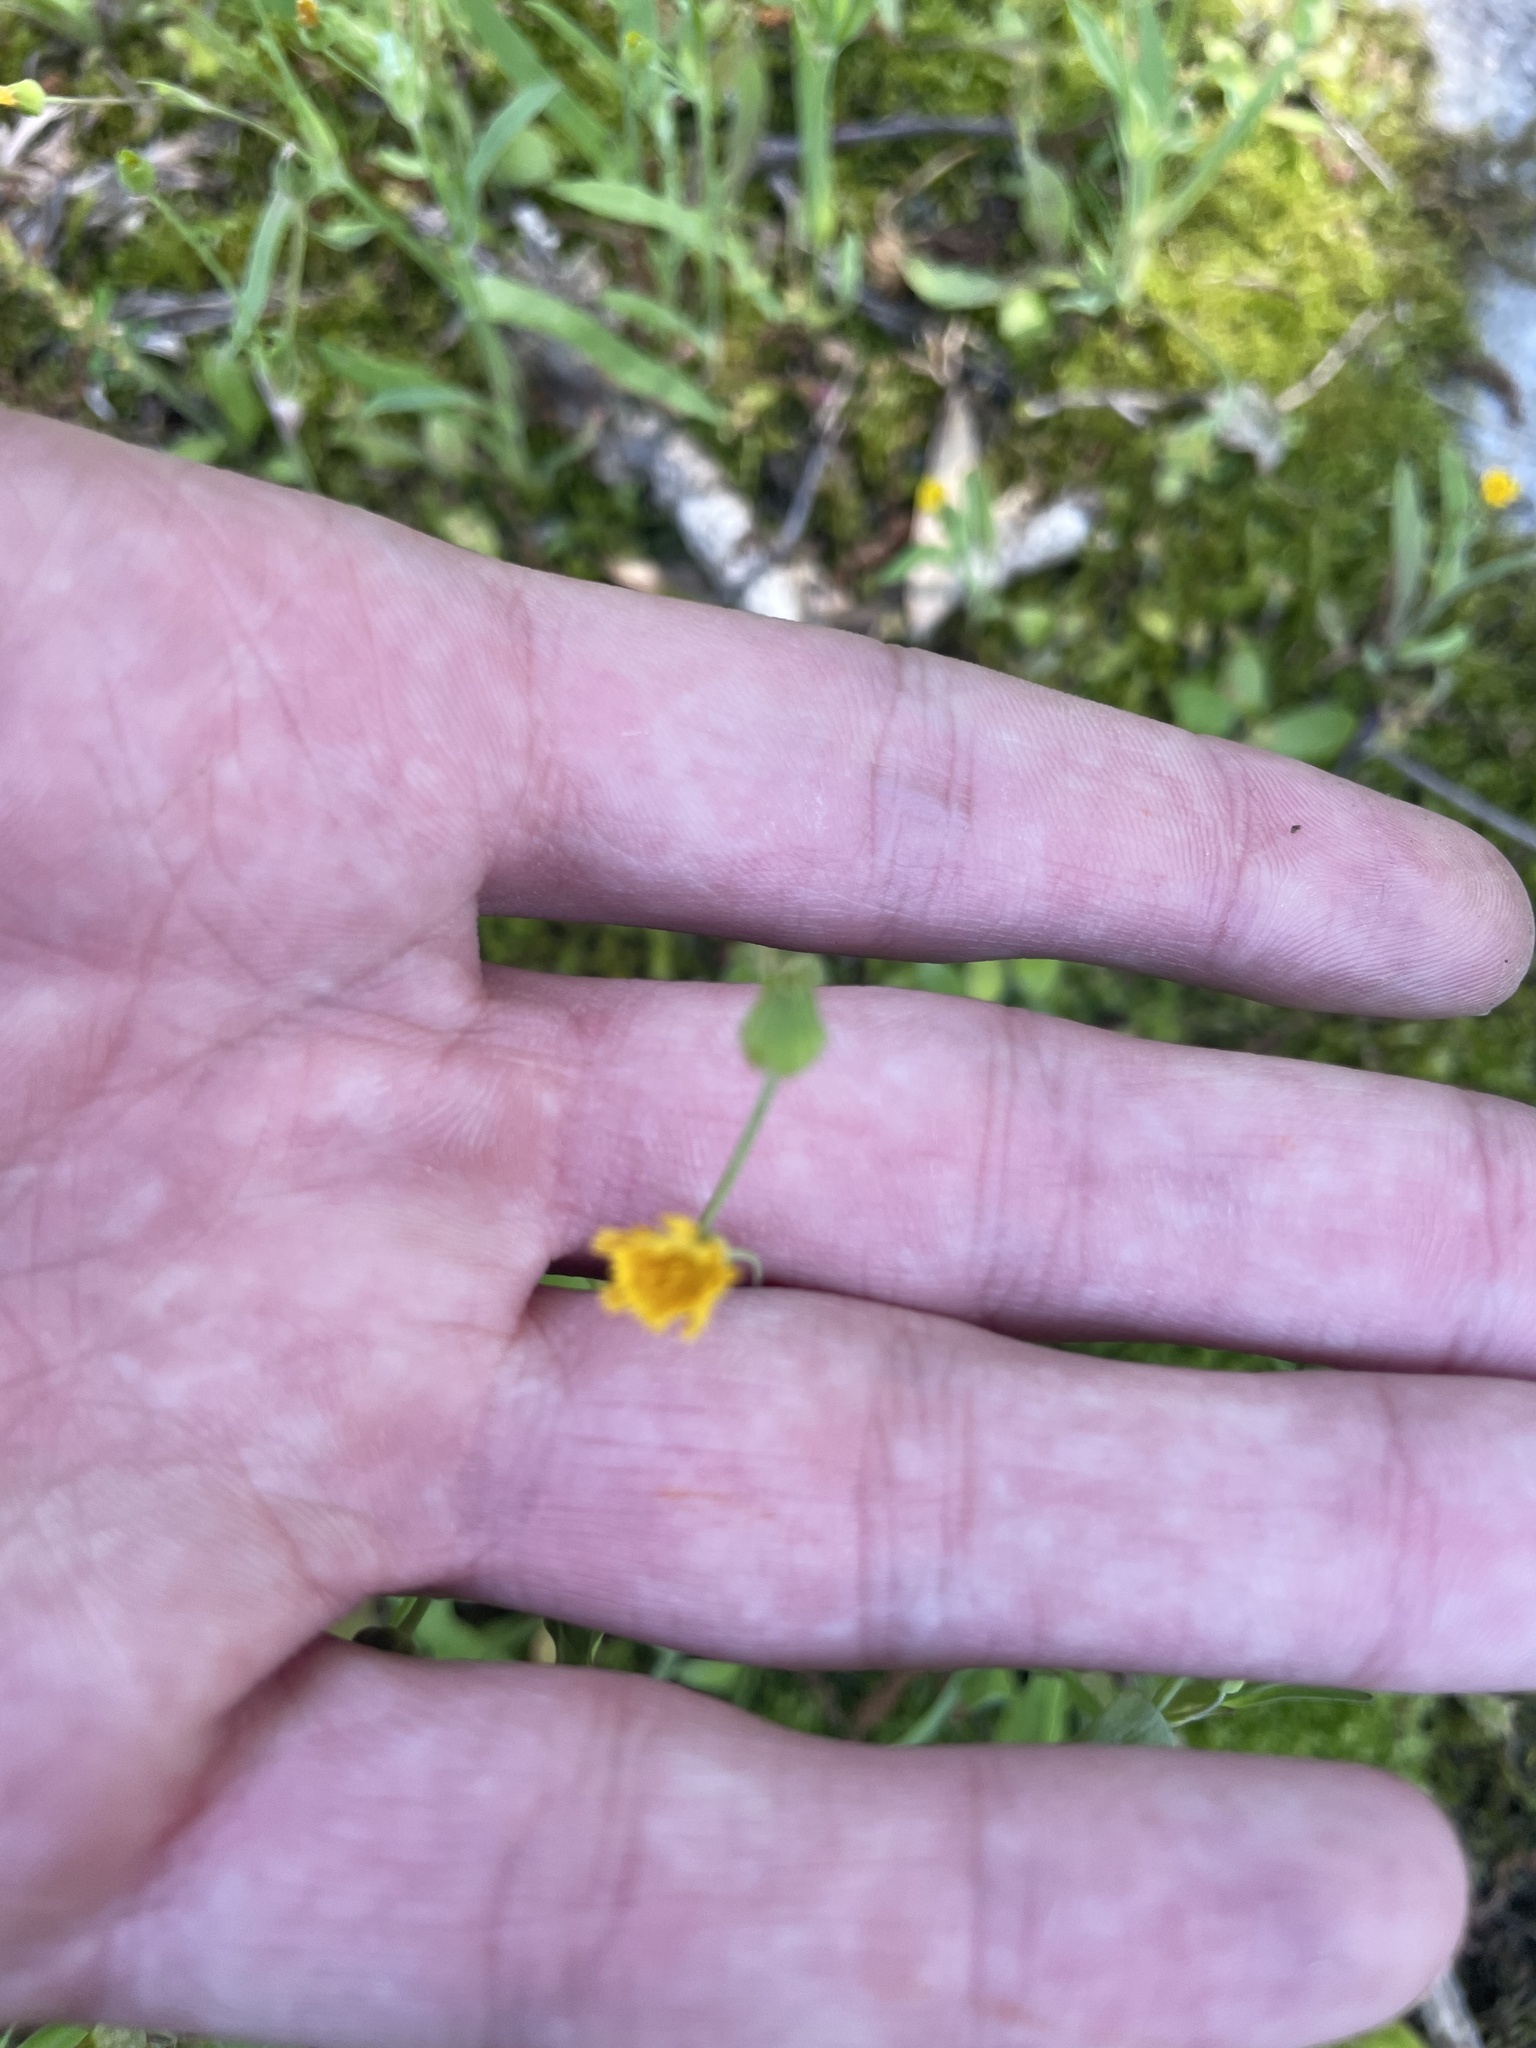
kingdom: Plantae
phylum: Tracheophyta
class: Magnoliopsida
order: Asterales
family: Asteraceae
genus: Krigia
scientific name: Krigia cespitosa
